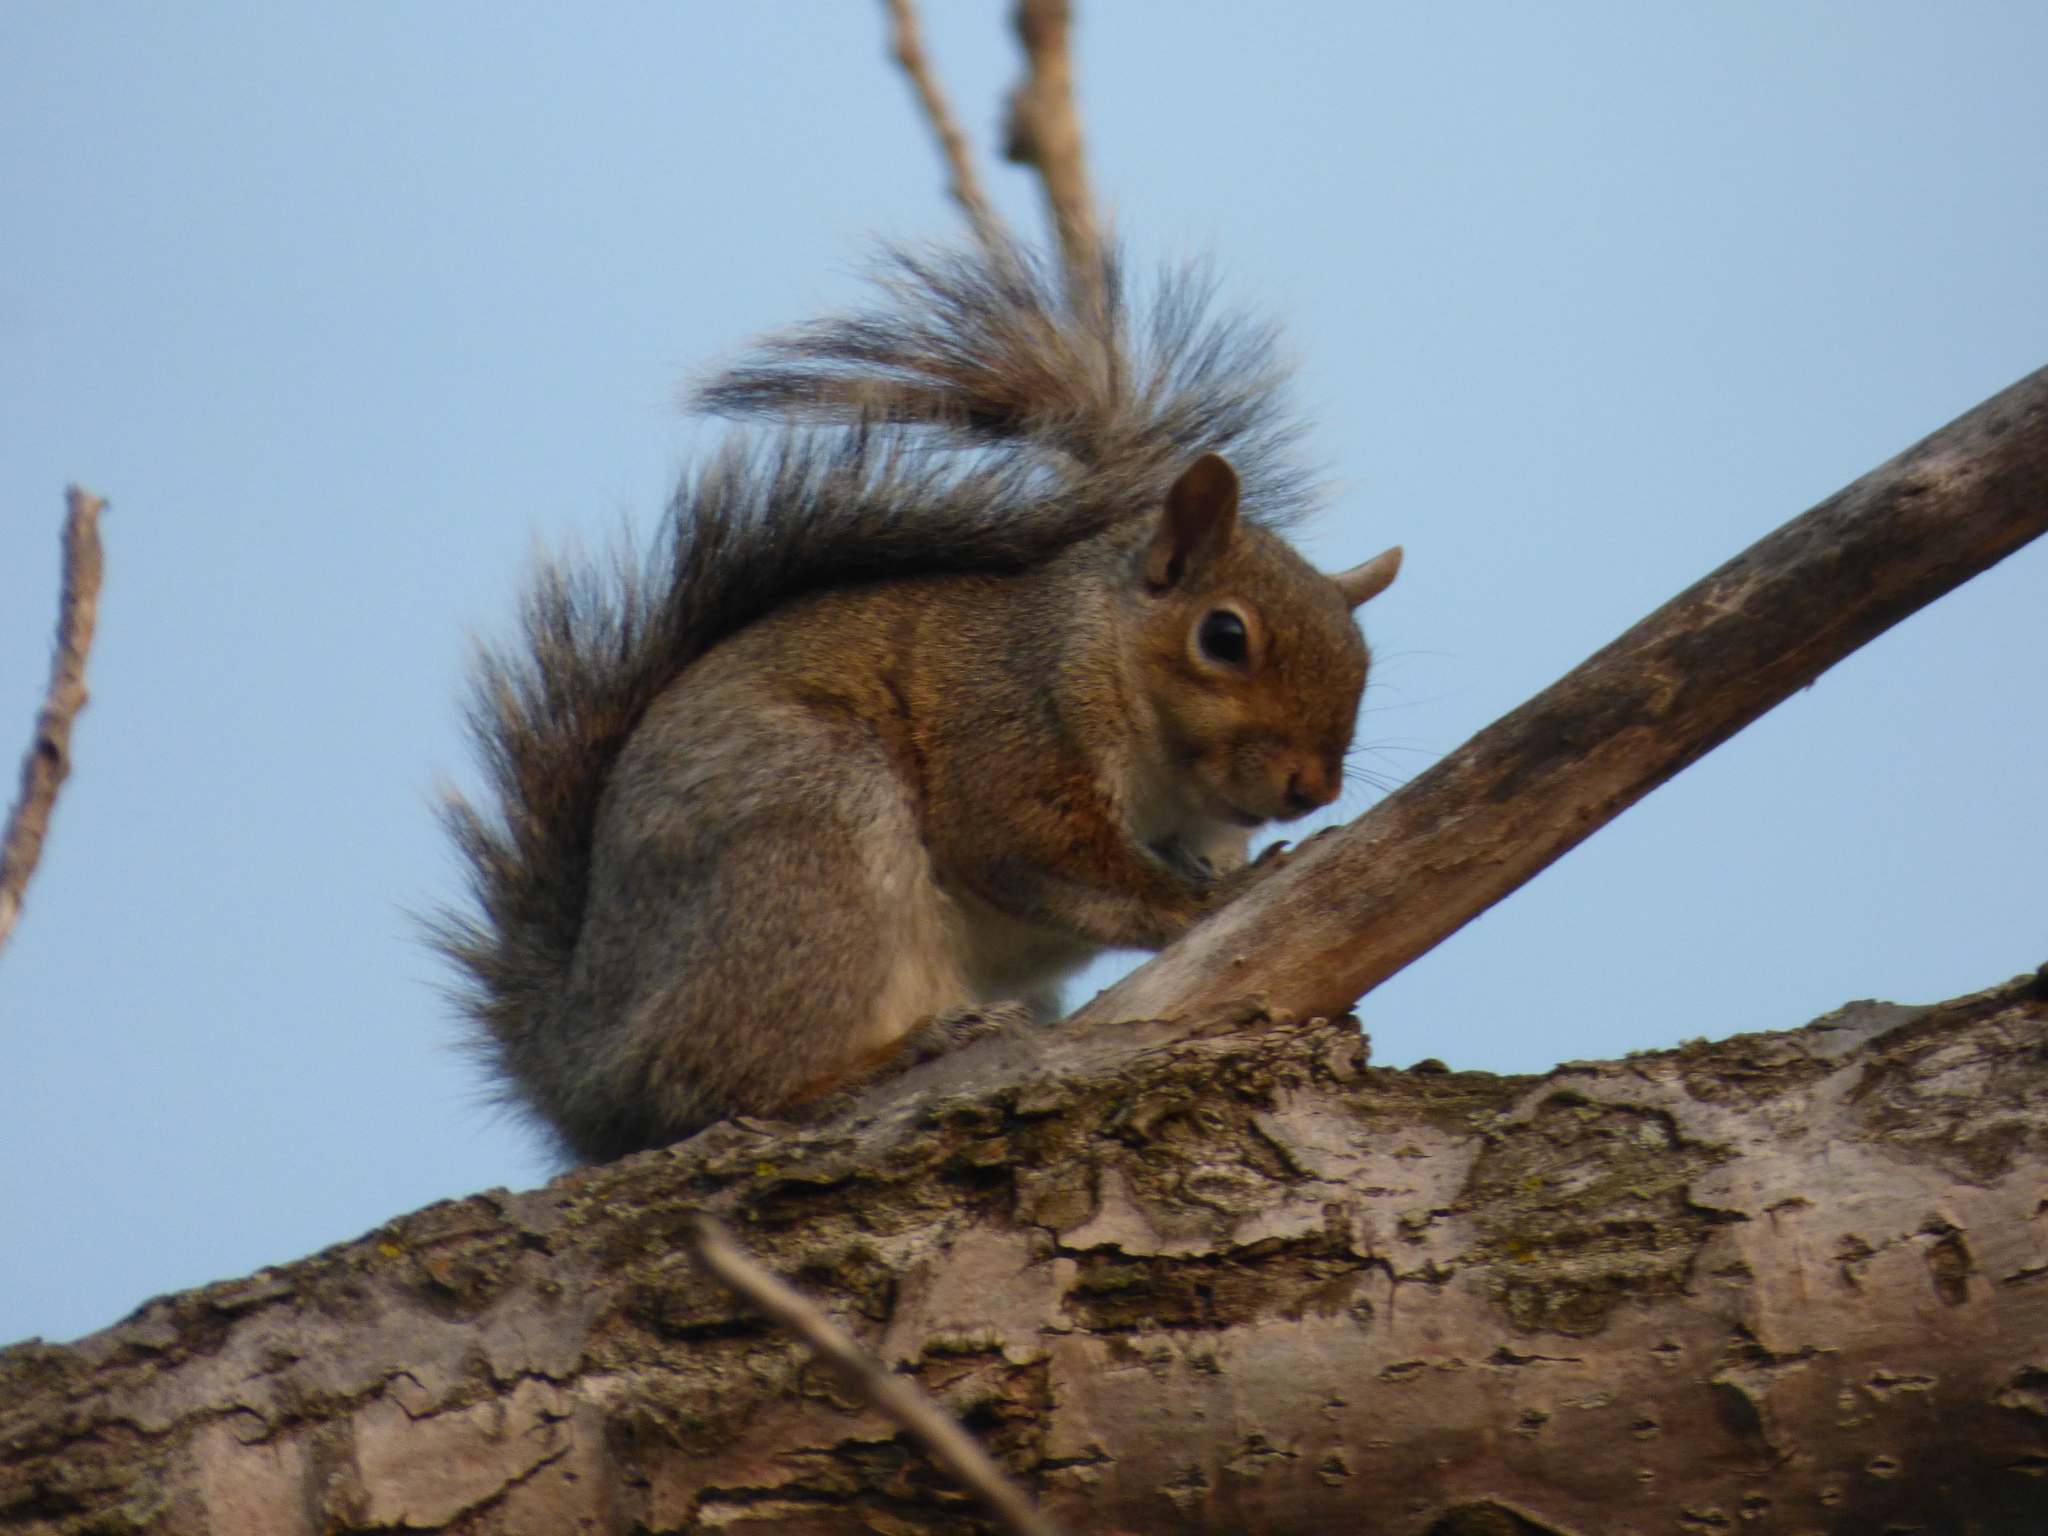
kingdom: Animalia
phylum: Chordata
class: Mammalia
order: Rodentia
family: Sciuridae
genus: Sciurus
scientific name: Sciurus carolinensis
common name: Eastern gray squirrel
